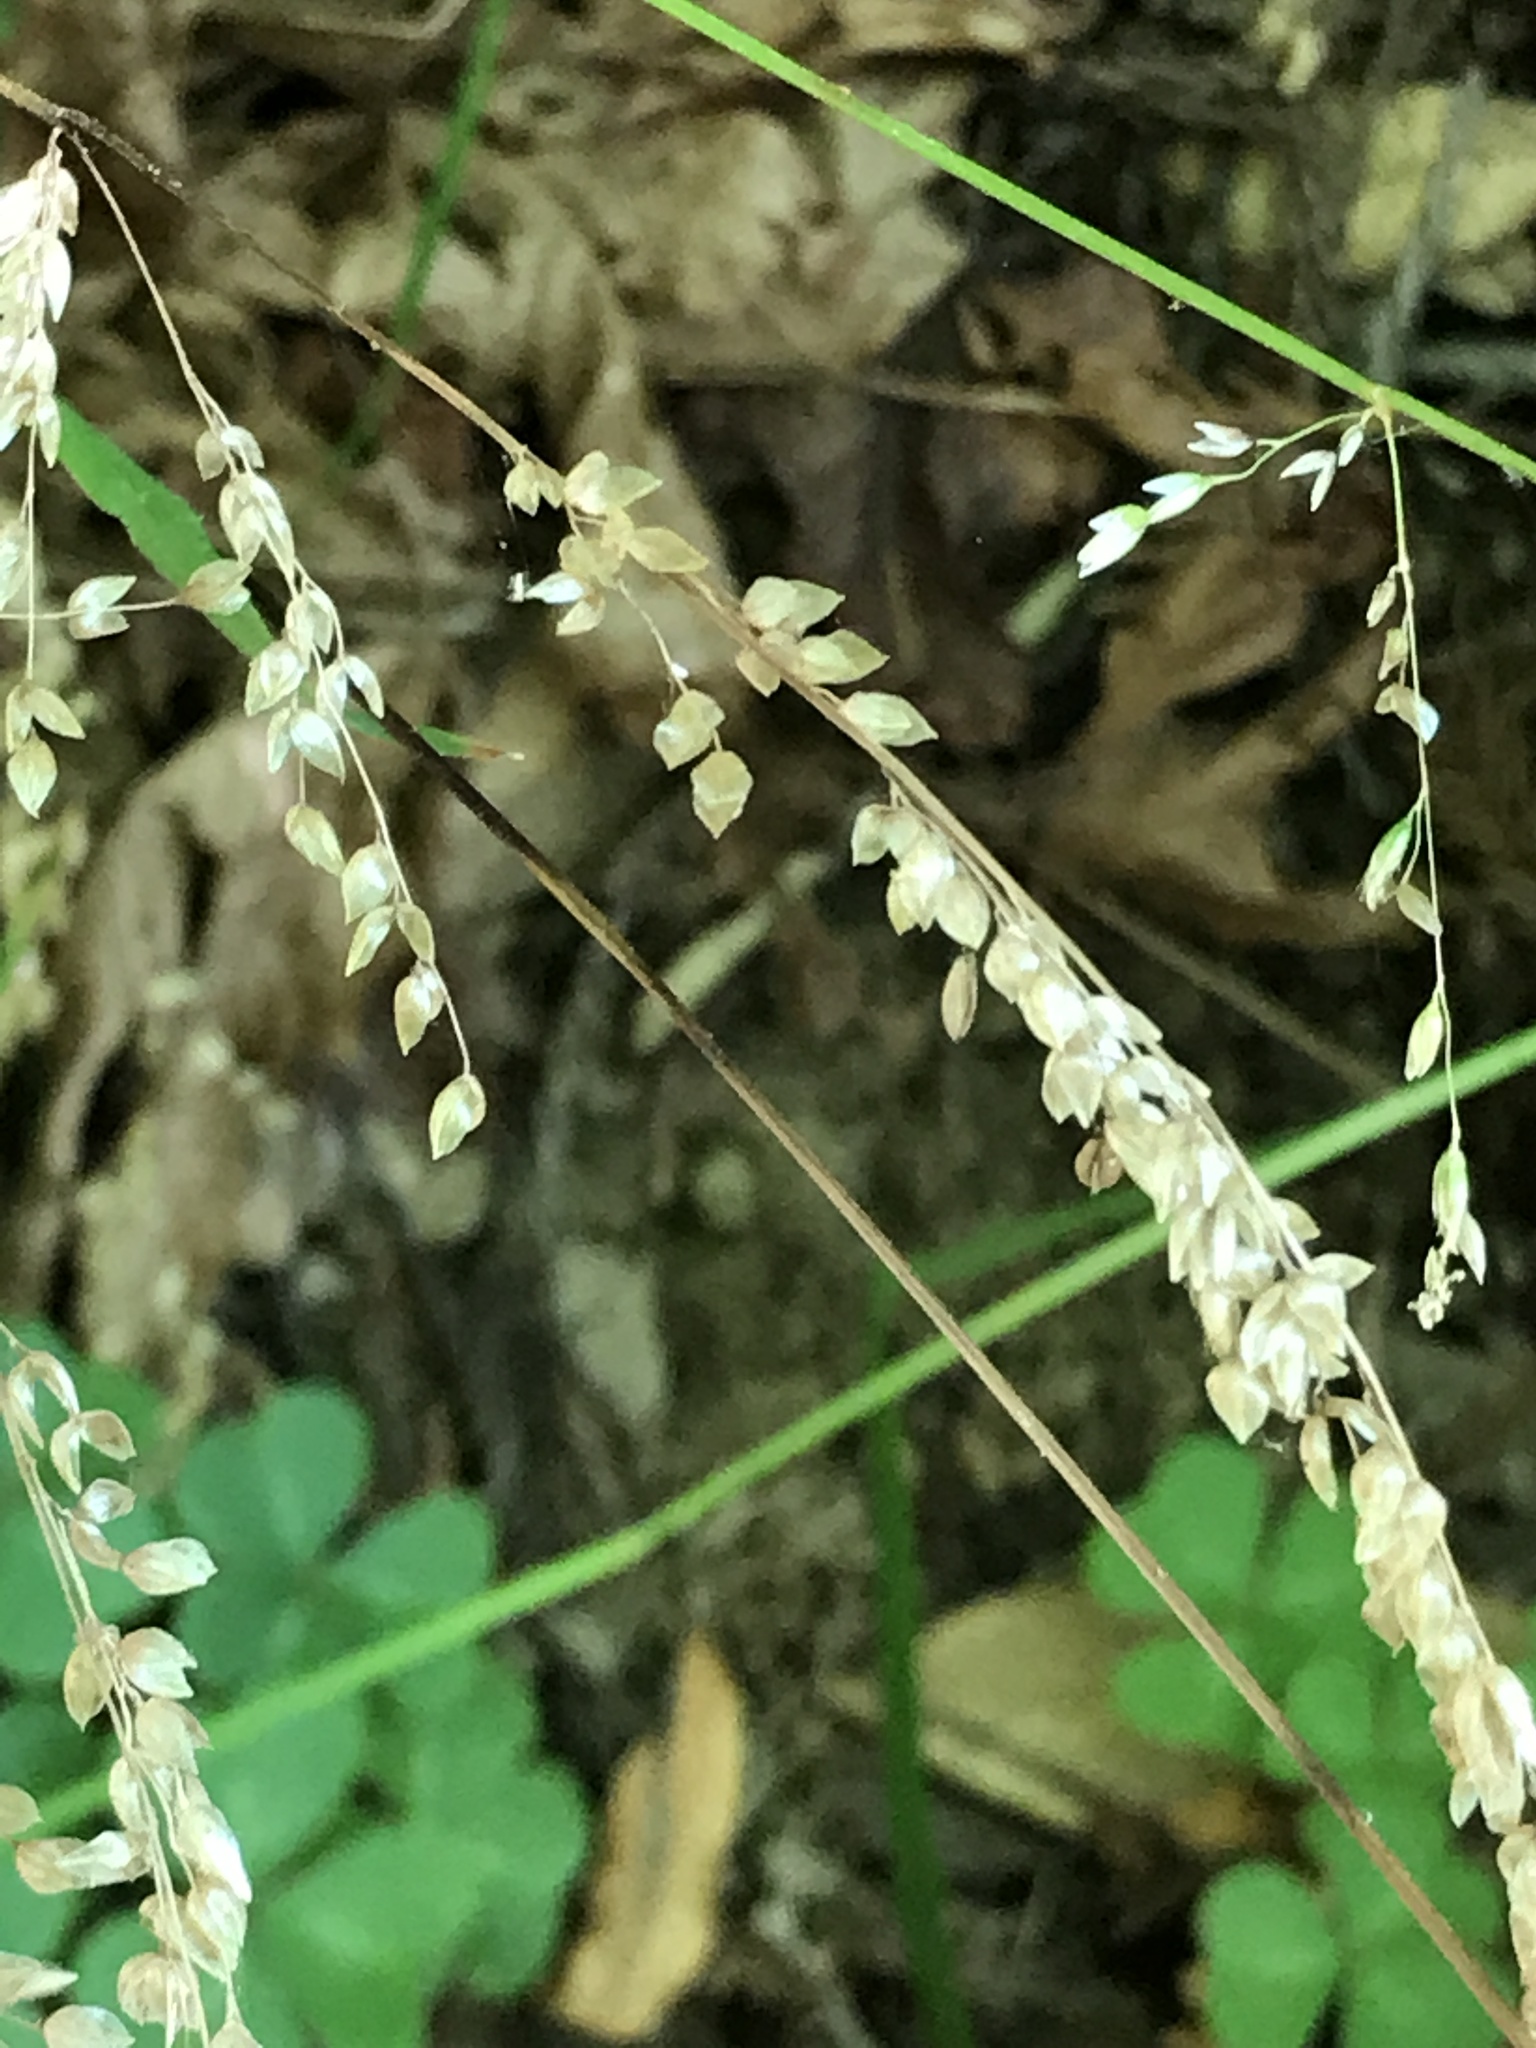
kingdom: Plantae
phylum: Tracheophyta
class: Liliopsida
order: Poales
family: Poaceae
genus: Anthoxanthum
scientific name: Anthoxanthum occidentale
